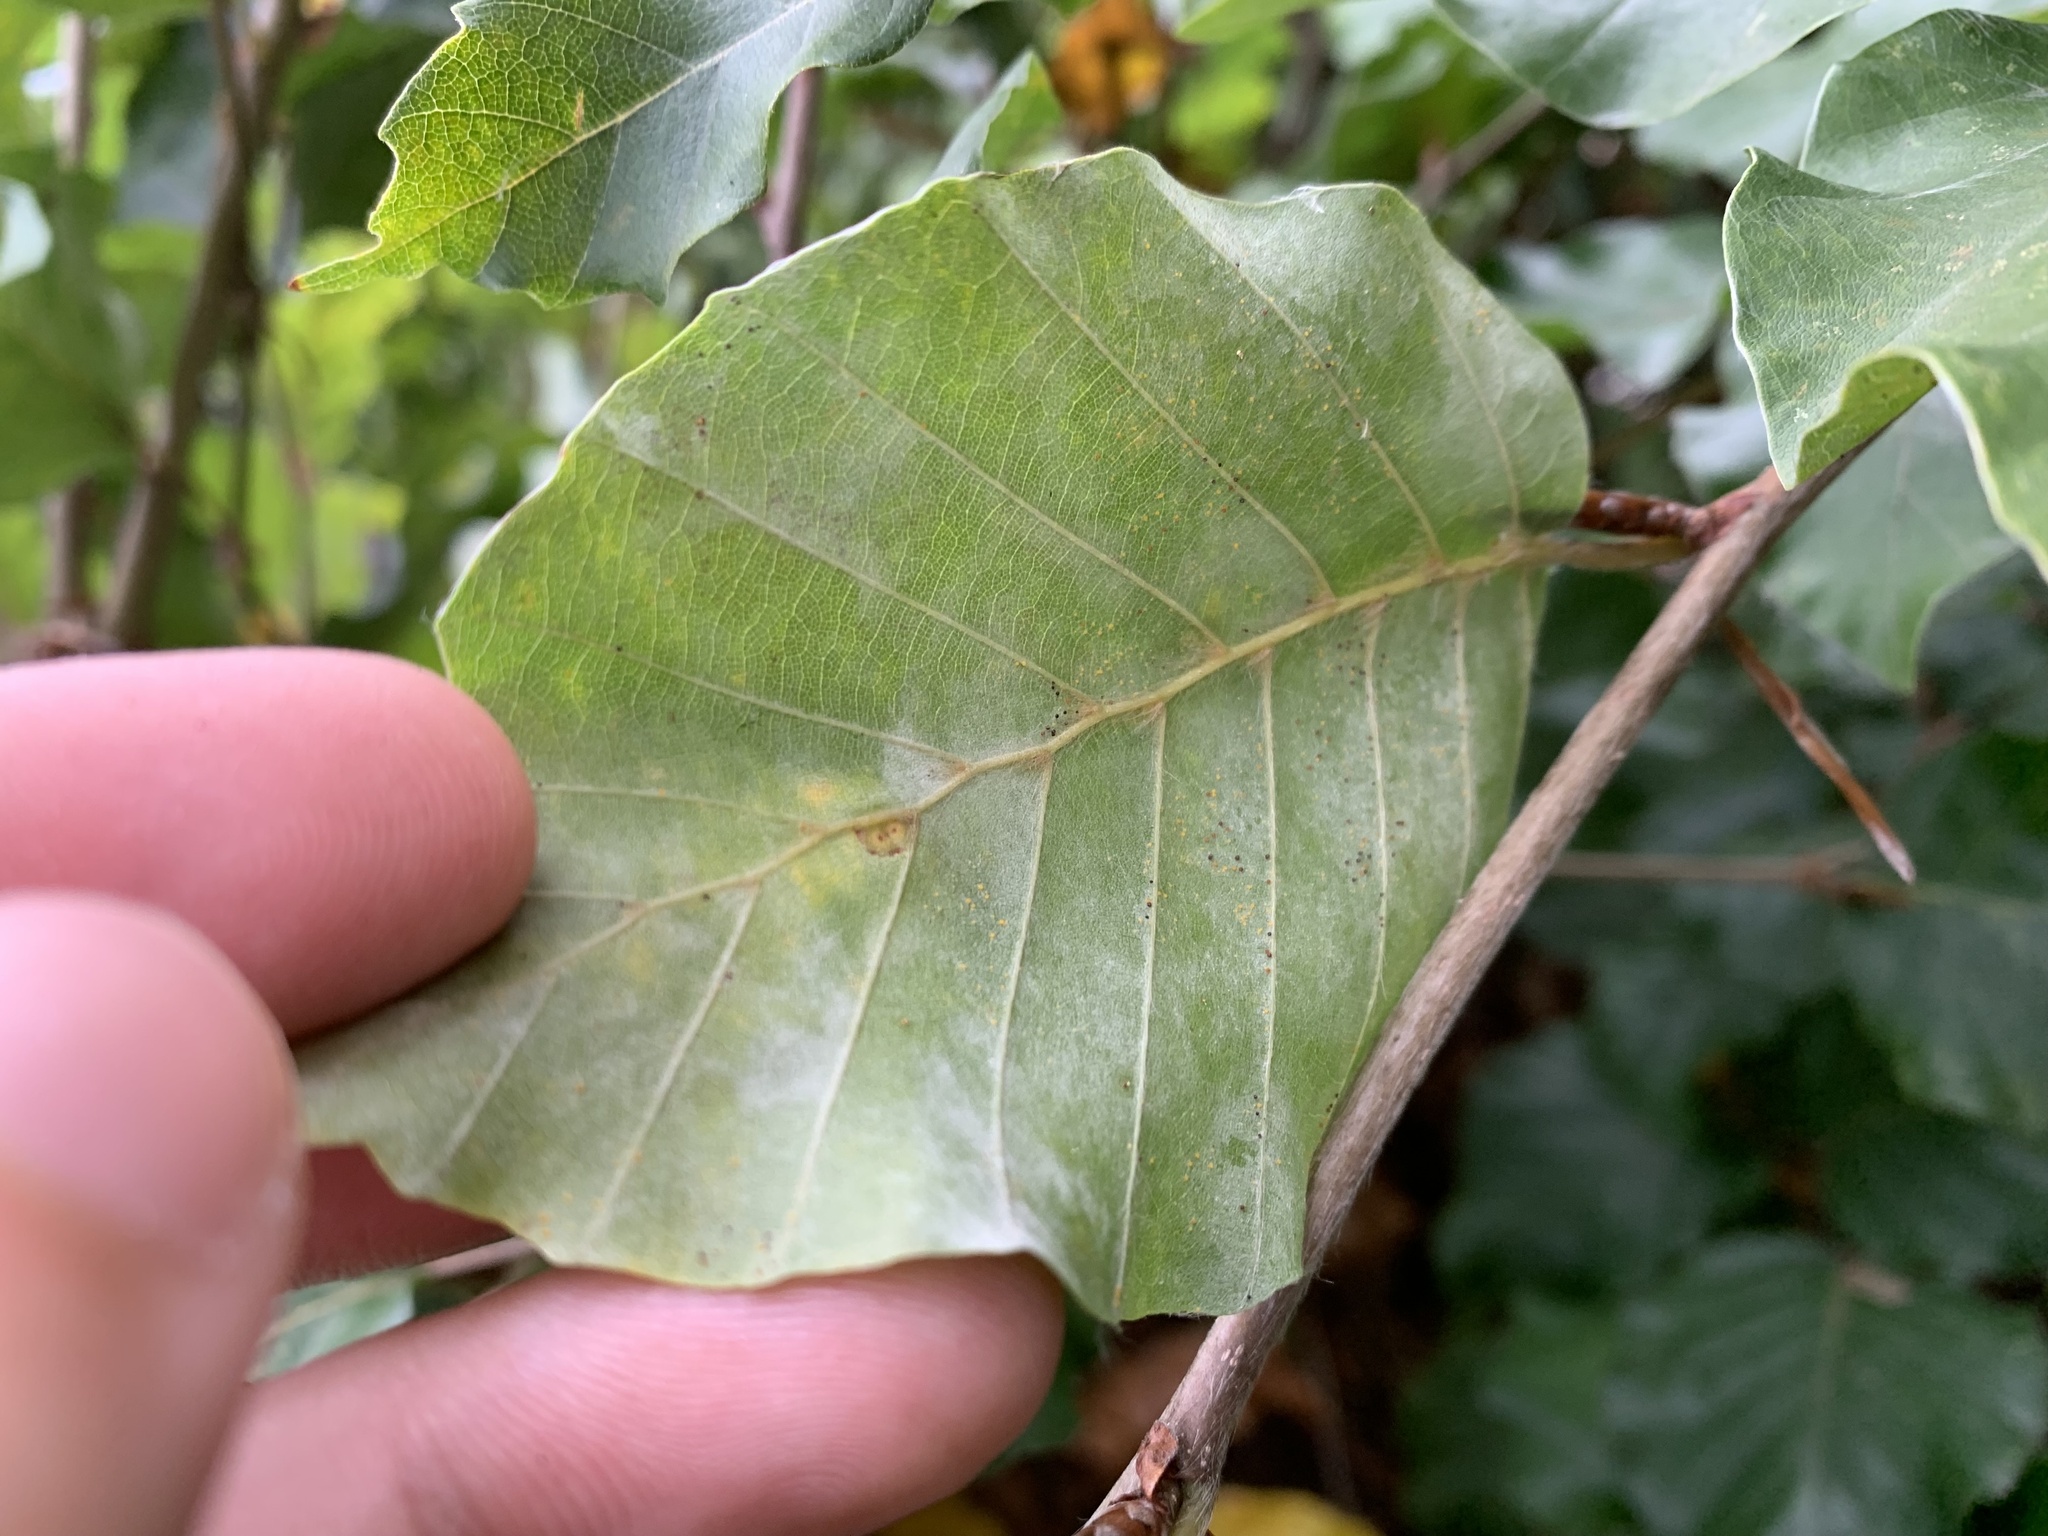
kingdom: Animalia
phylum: Arthropoda
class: Insecta
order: Diptera
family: Cecidomyiidae
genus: Hartigiola
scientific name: Hartigiola annulipes
